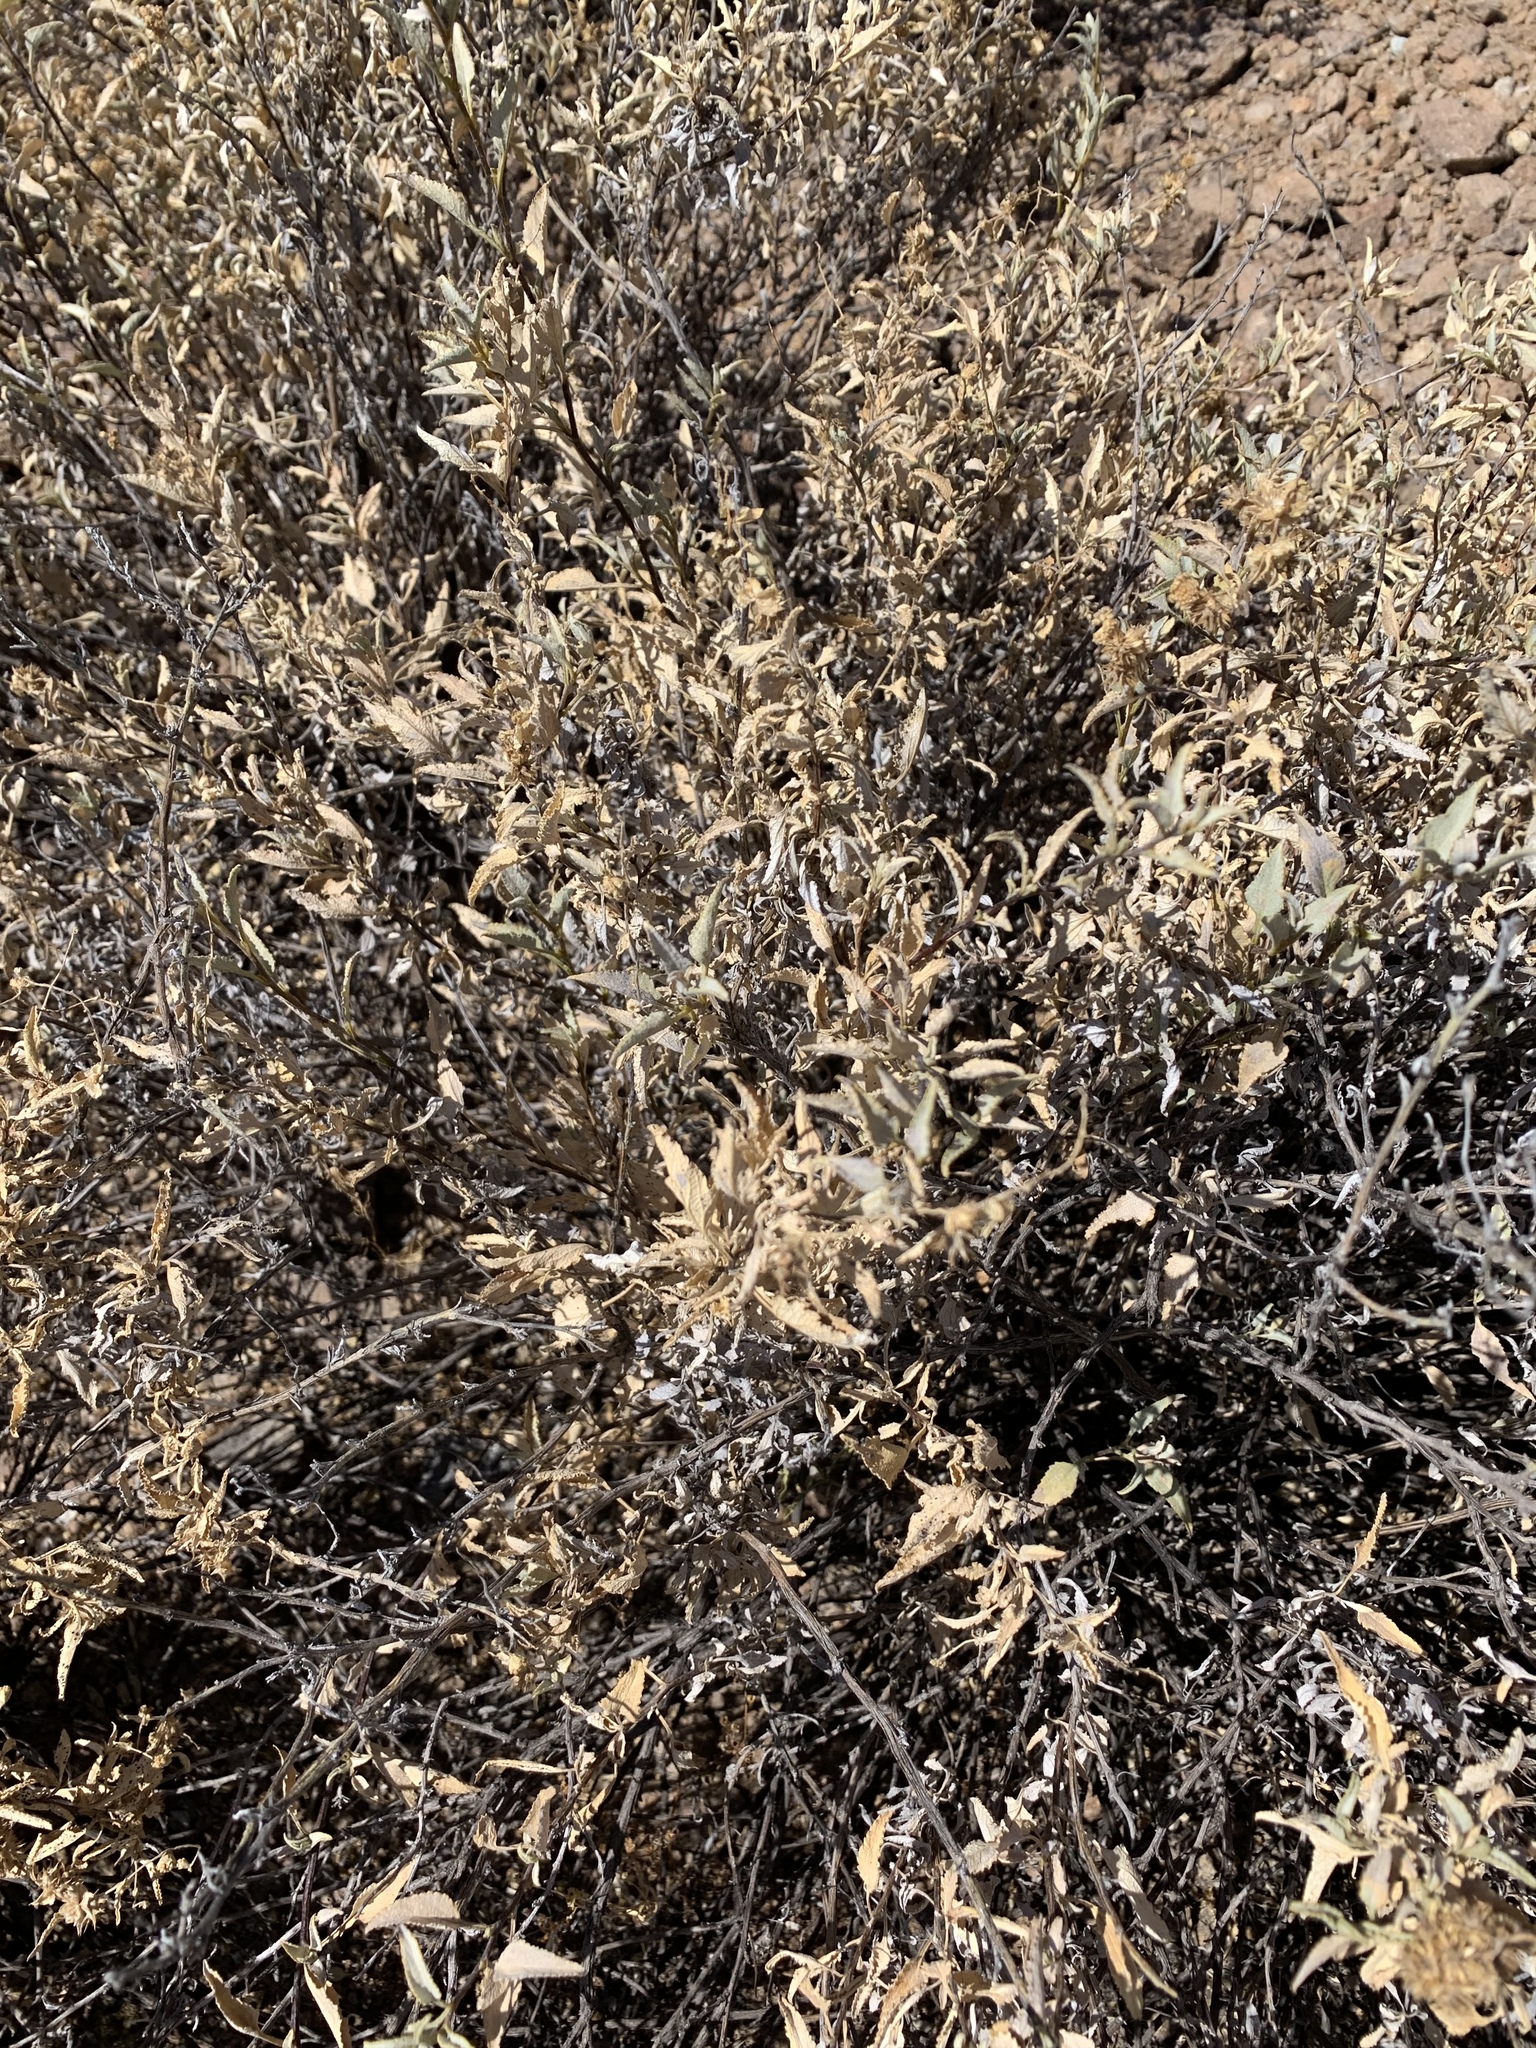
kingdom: Plantae
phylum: Tracheophyta
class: Magnoliopsida
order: Asterales
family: Asteraceae
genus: Ambrosia
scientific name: Ambrosia deltoidea
